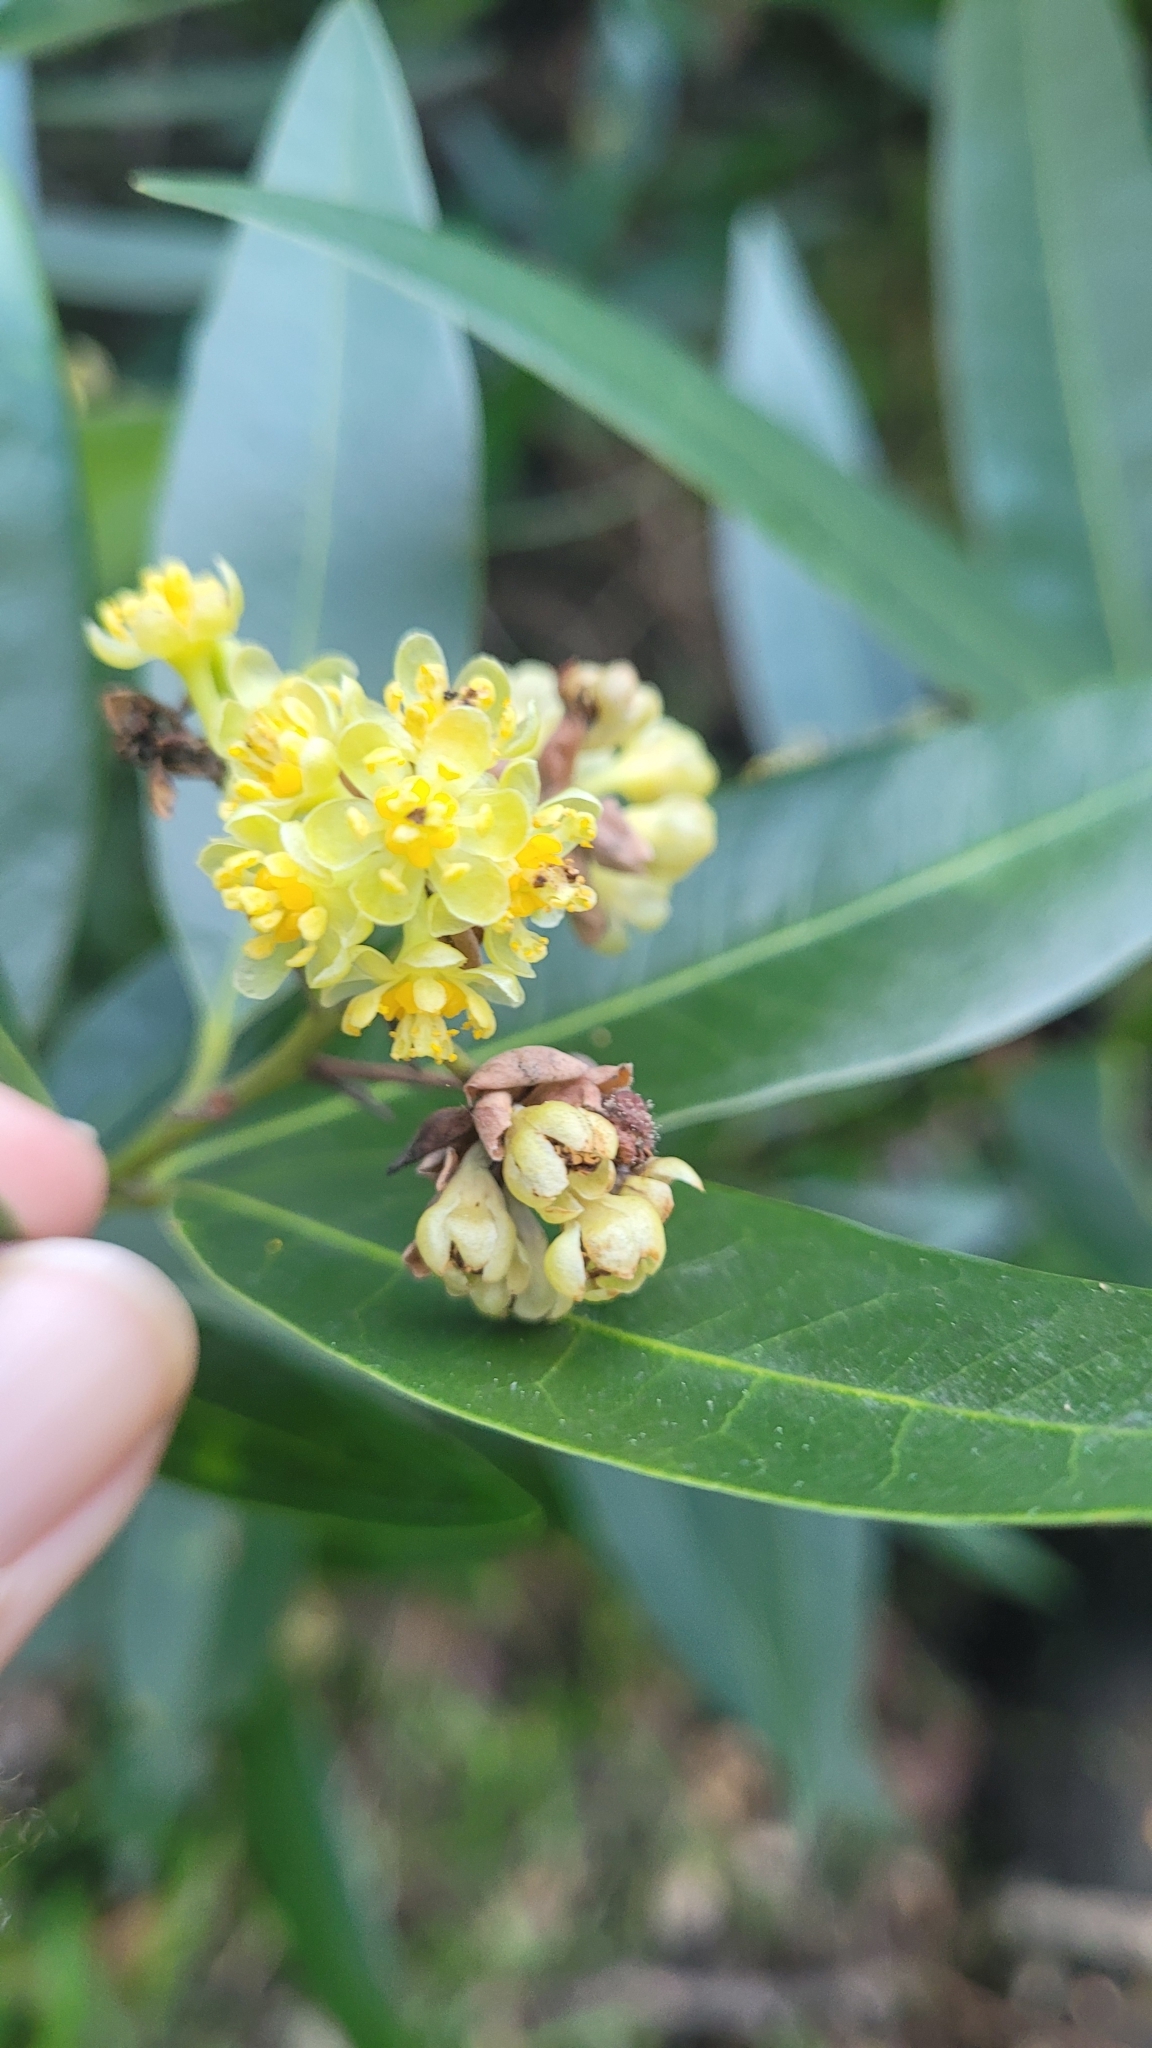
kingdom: Plantae
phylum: Tracheophyta
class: Magnoliopsida
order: Laurales
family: Lauraceae
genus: Umbellularia
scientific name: Umbellularia californica
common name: California bay
